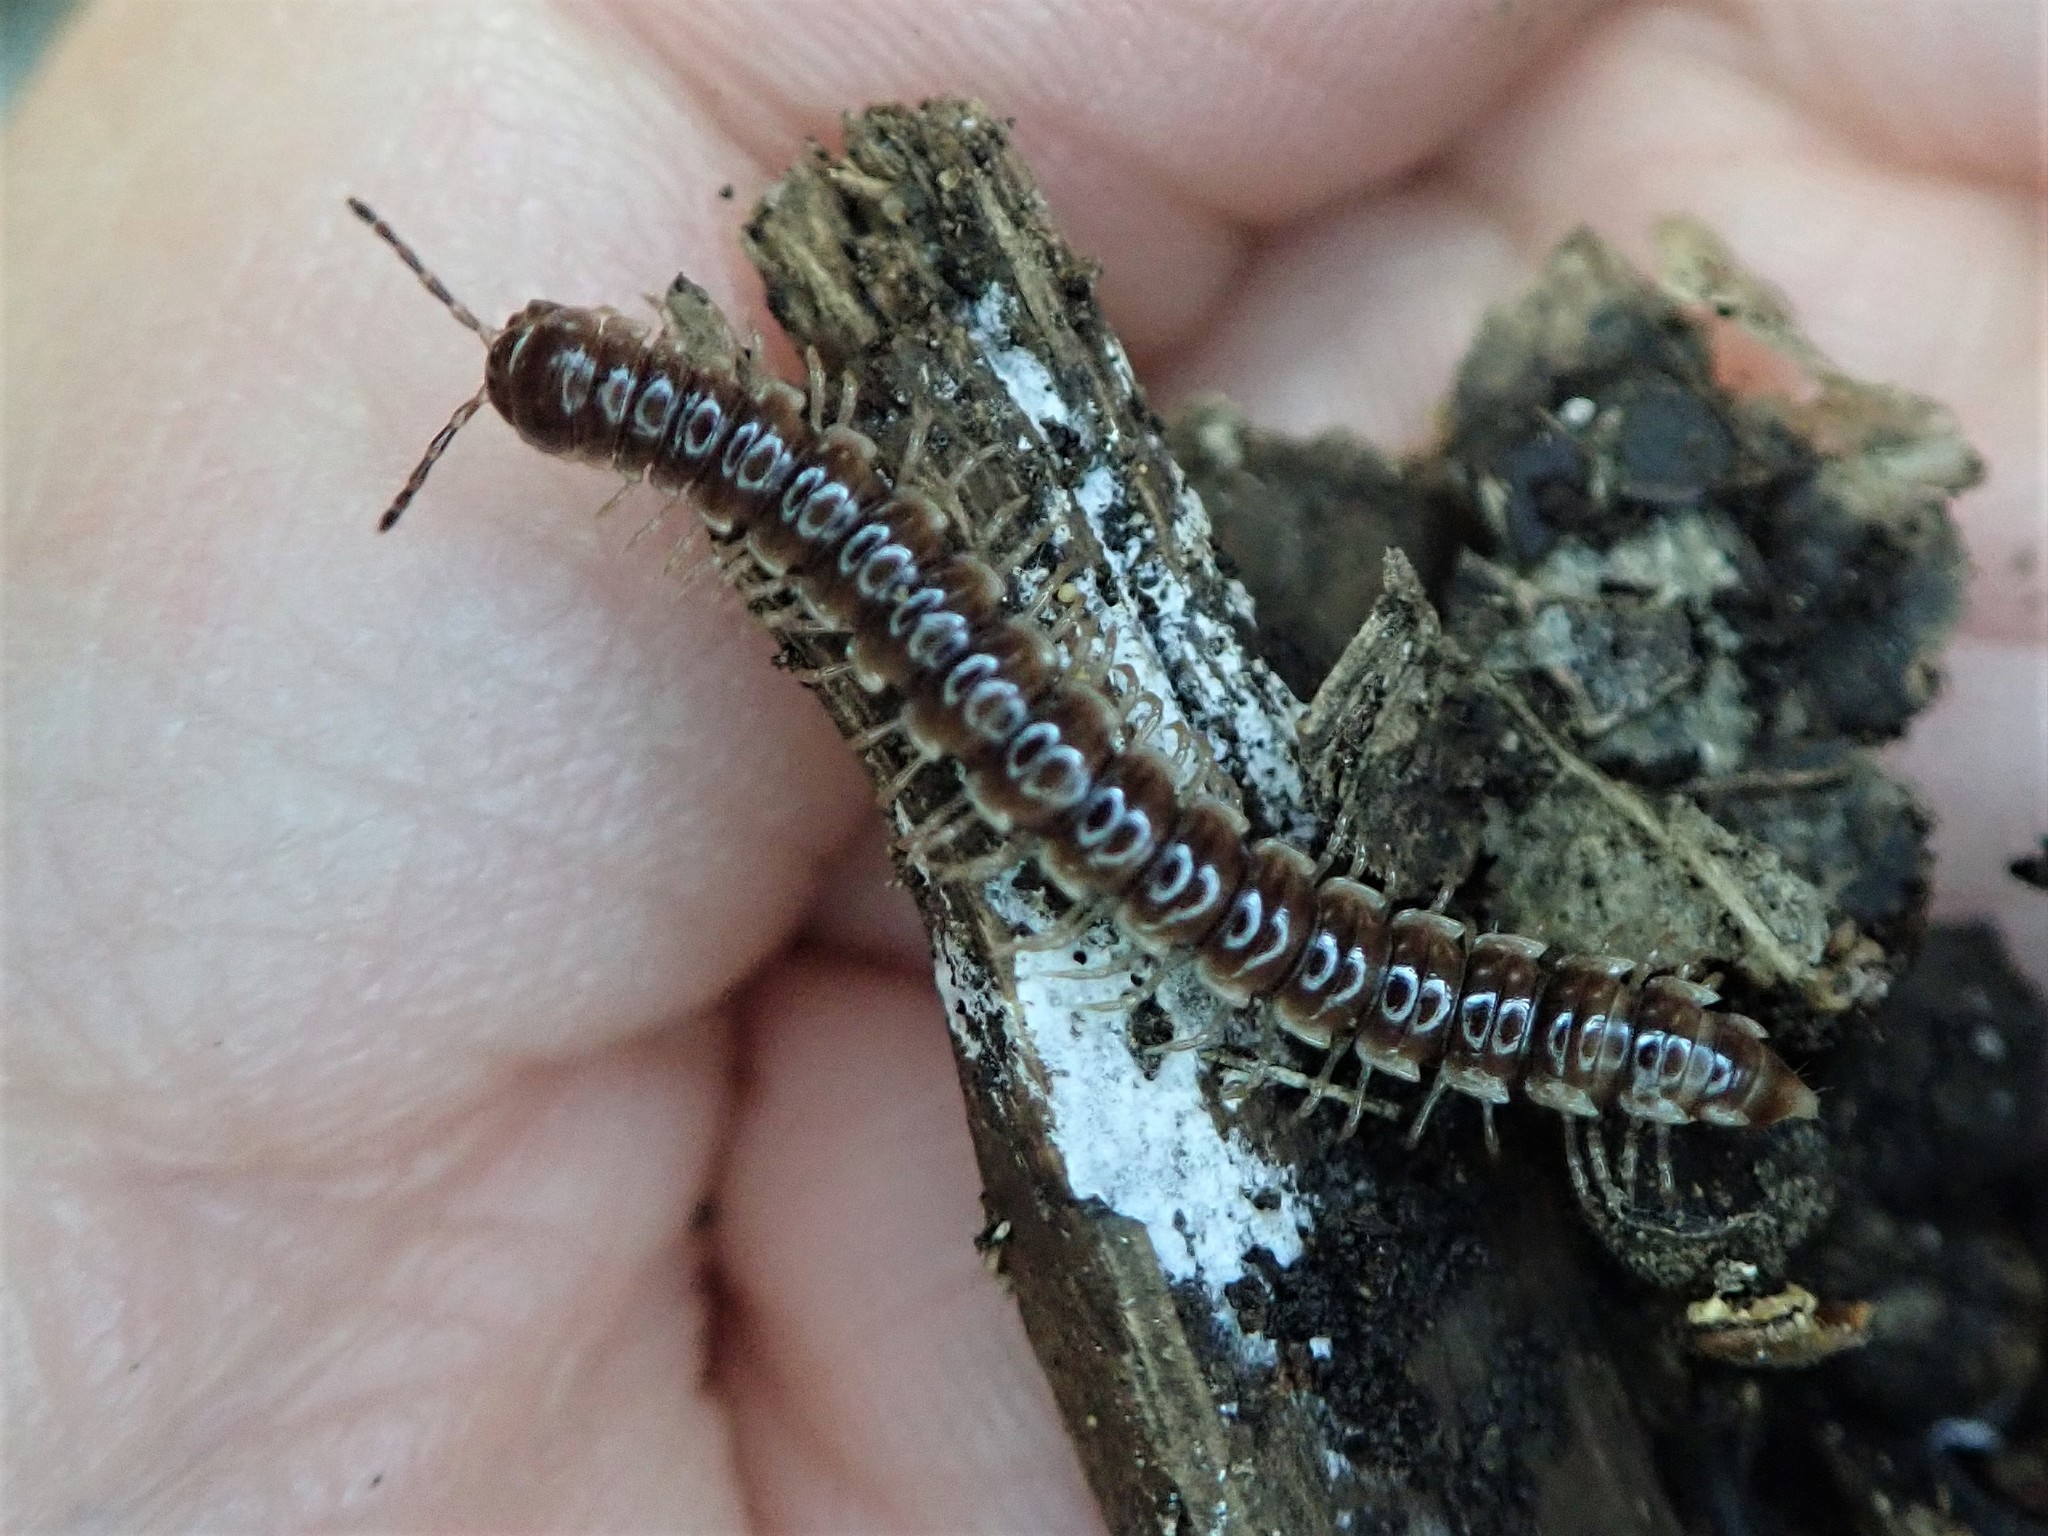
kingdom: Animalia
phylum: Arthropoda
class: Diplopoda
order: Polydesmida
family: Paradoxosomatidae
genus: Oxidus
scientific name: Oxidus gracilis
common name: Greenhouse millipede
